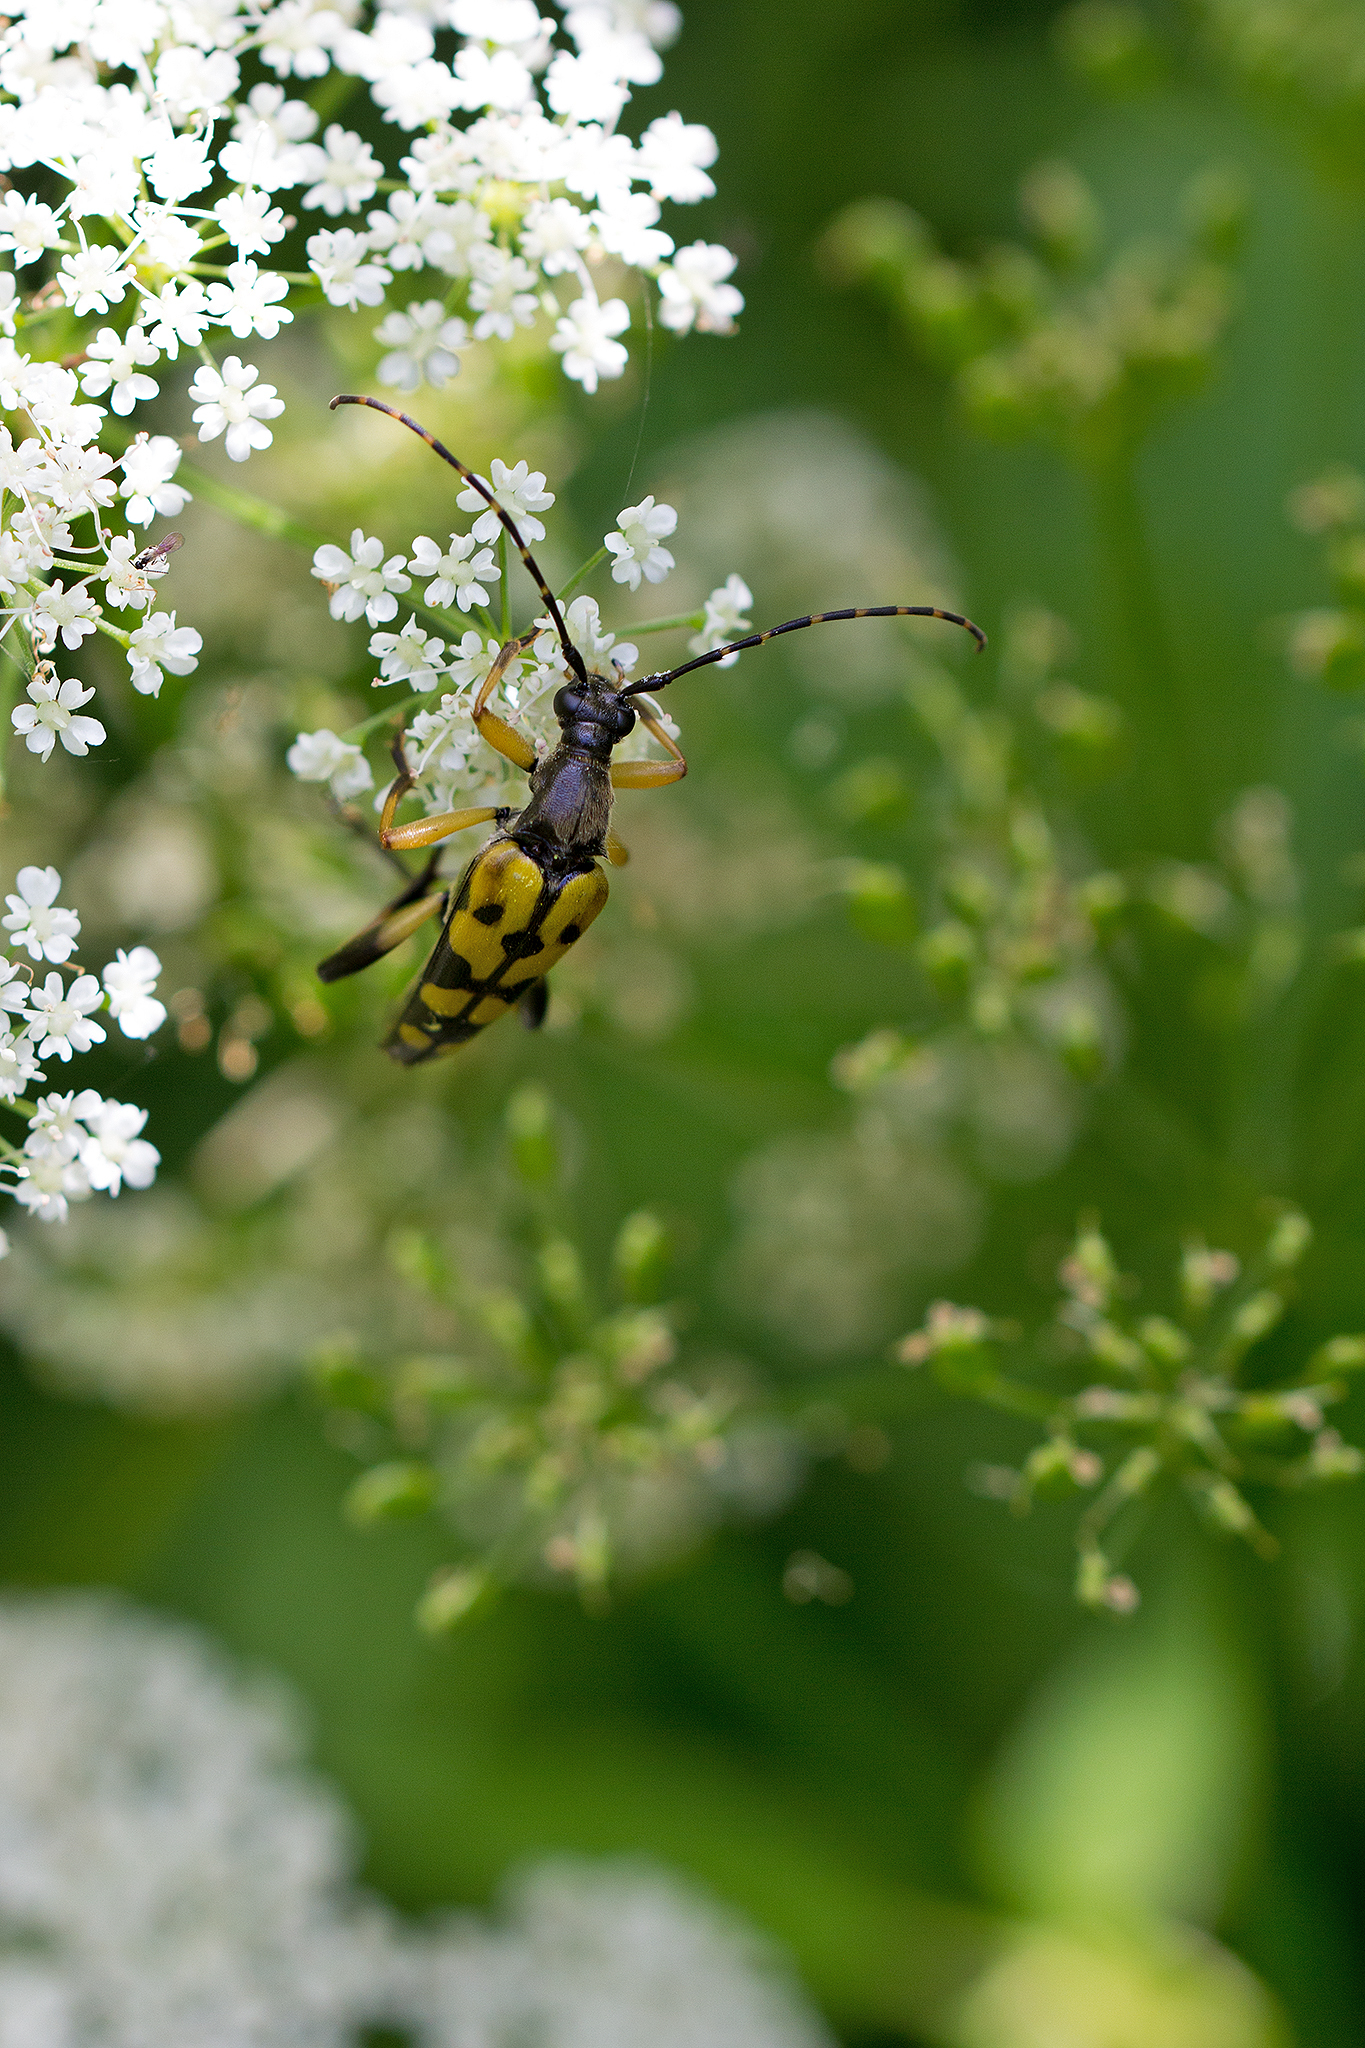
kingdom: Animalia
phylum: Arthropoda
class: Insecta
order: Coleoptera
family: Cerambycidae
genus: Rutpela
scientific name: Rutpela maculata
